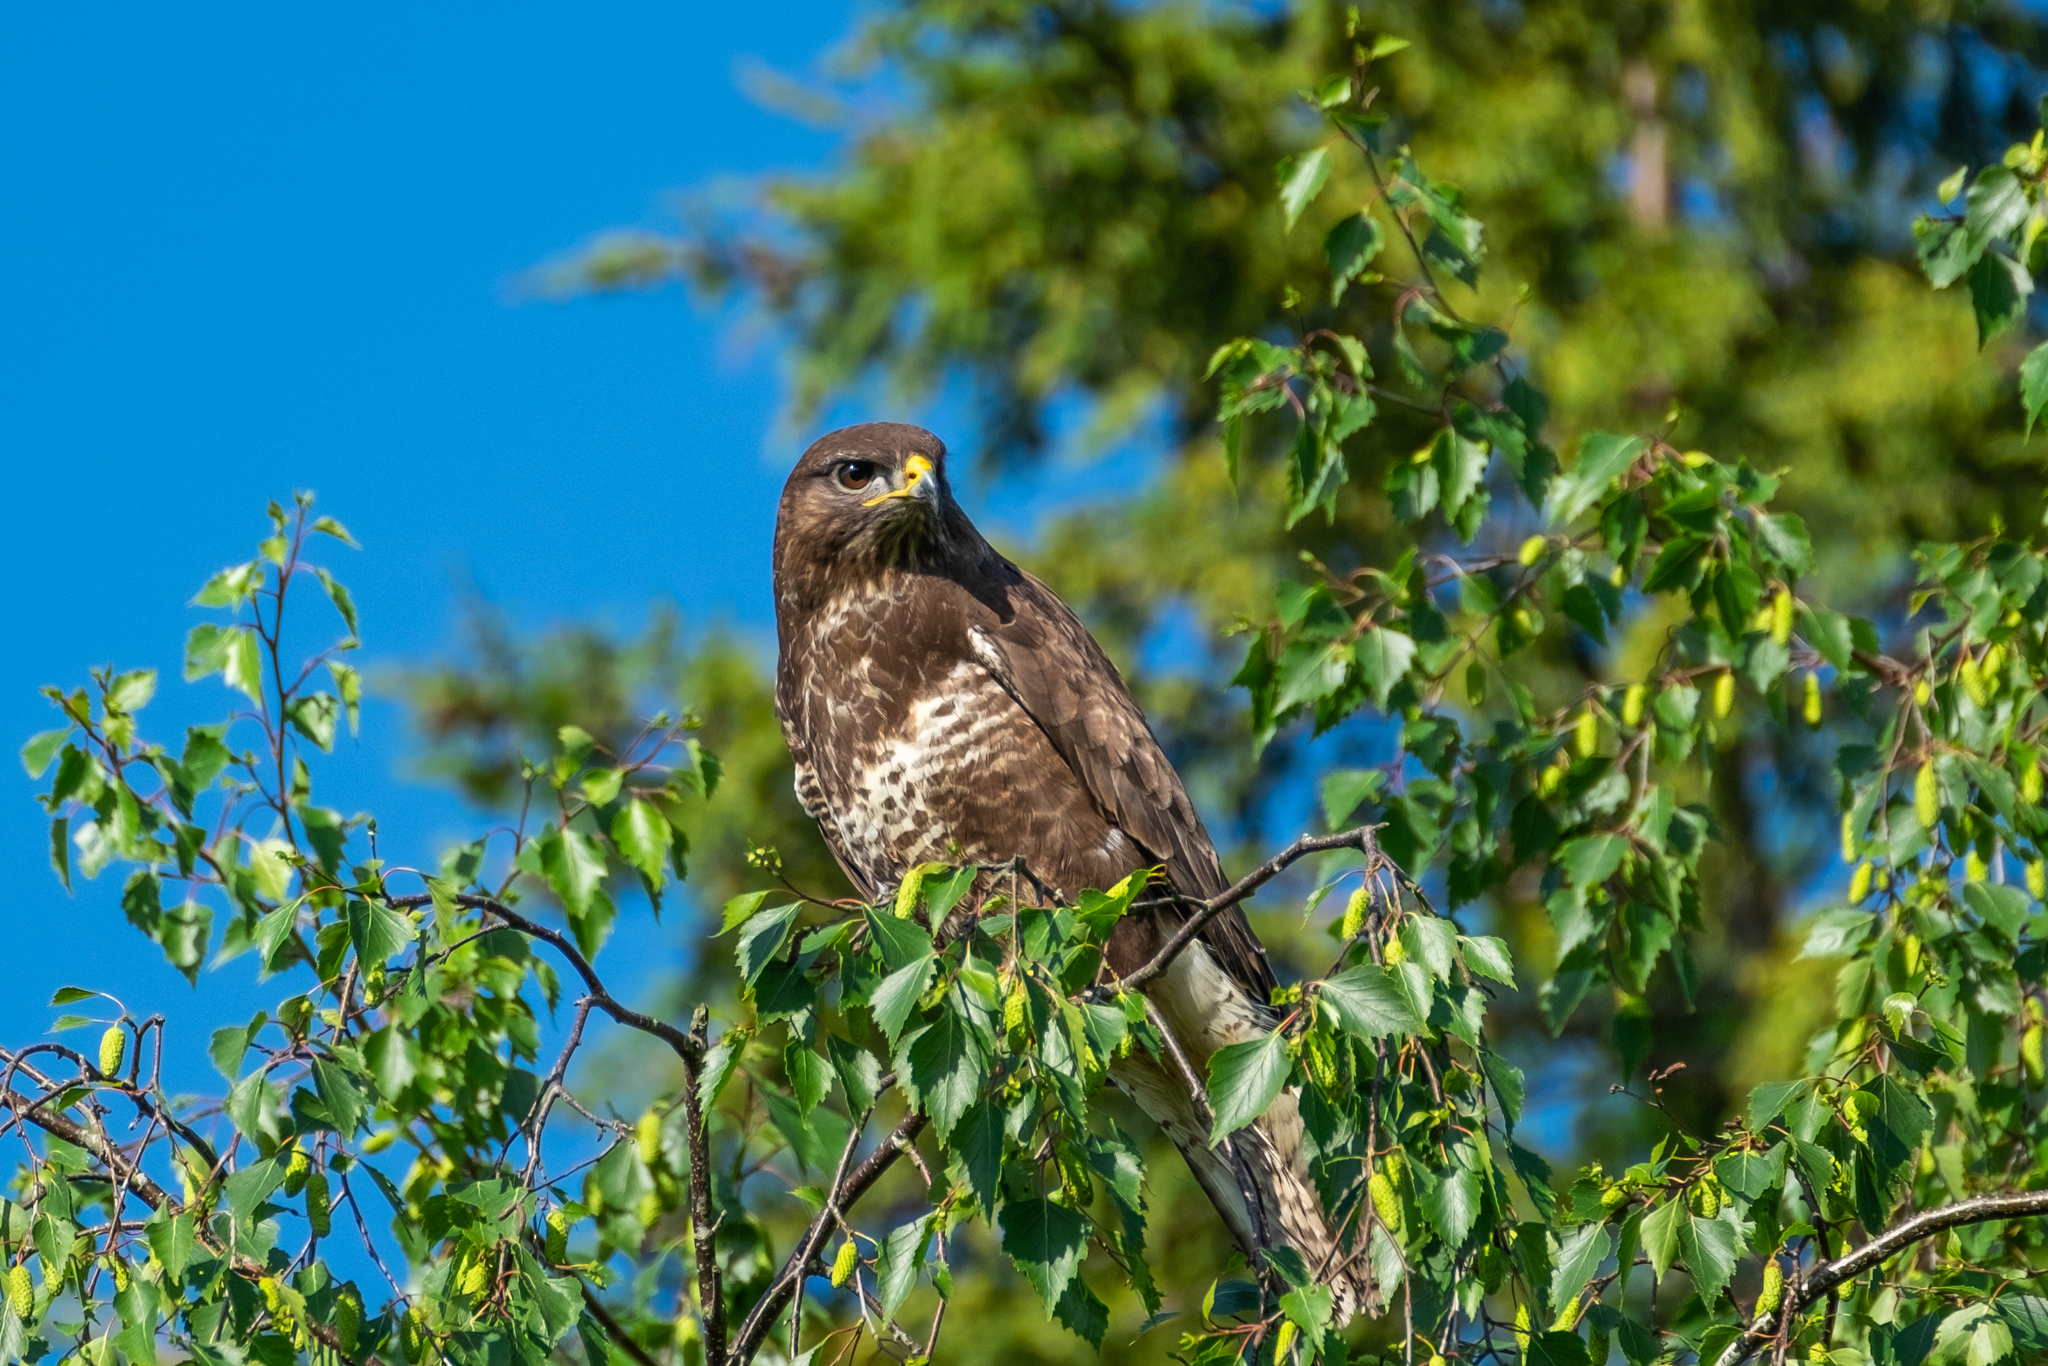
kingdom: Animalia
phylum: Chordata
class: Aves
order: Accipitriformes
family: Accipitridae
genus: Buteo
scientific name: Buteo buteo
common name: Common buzzard
